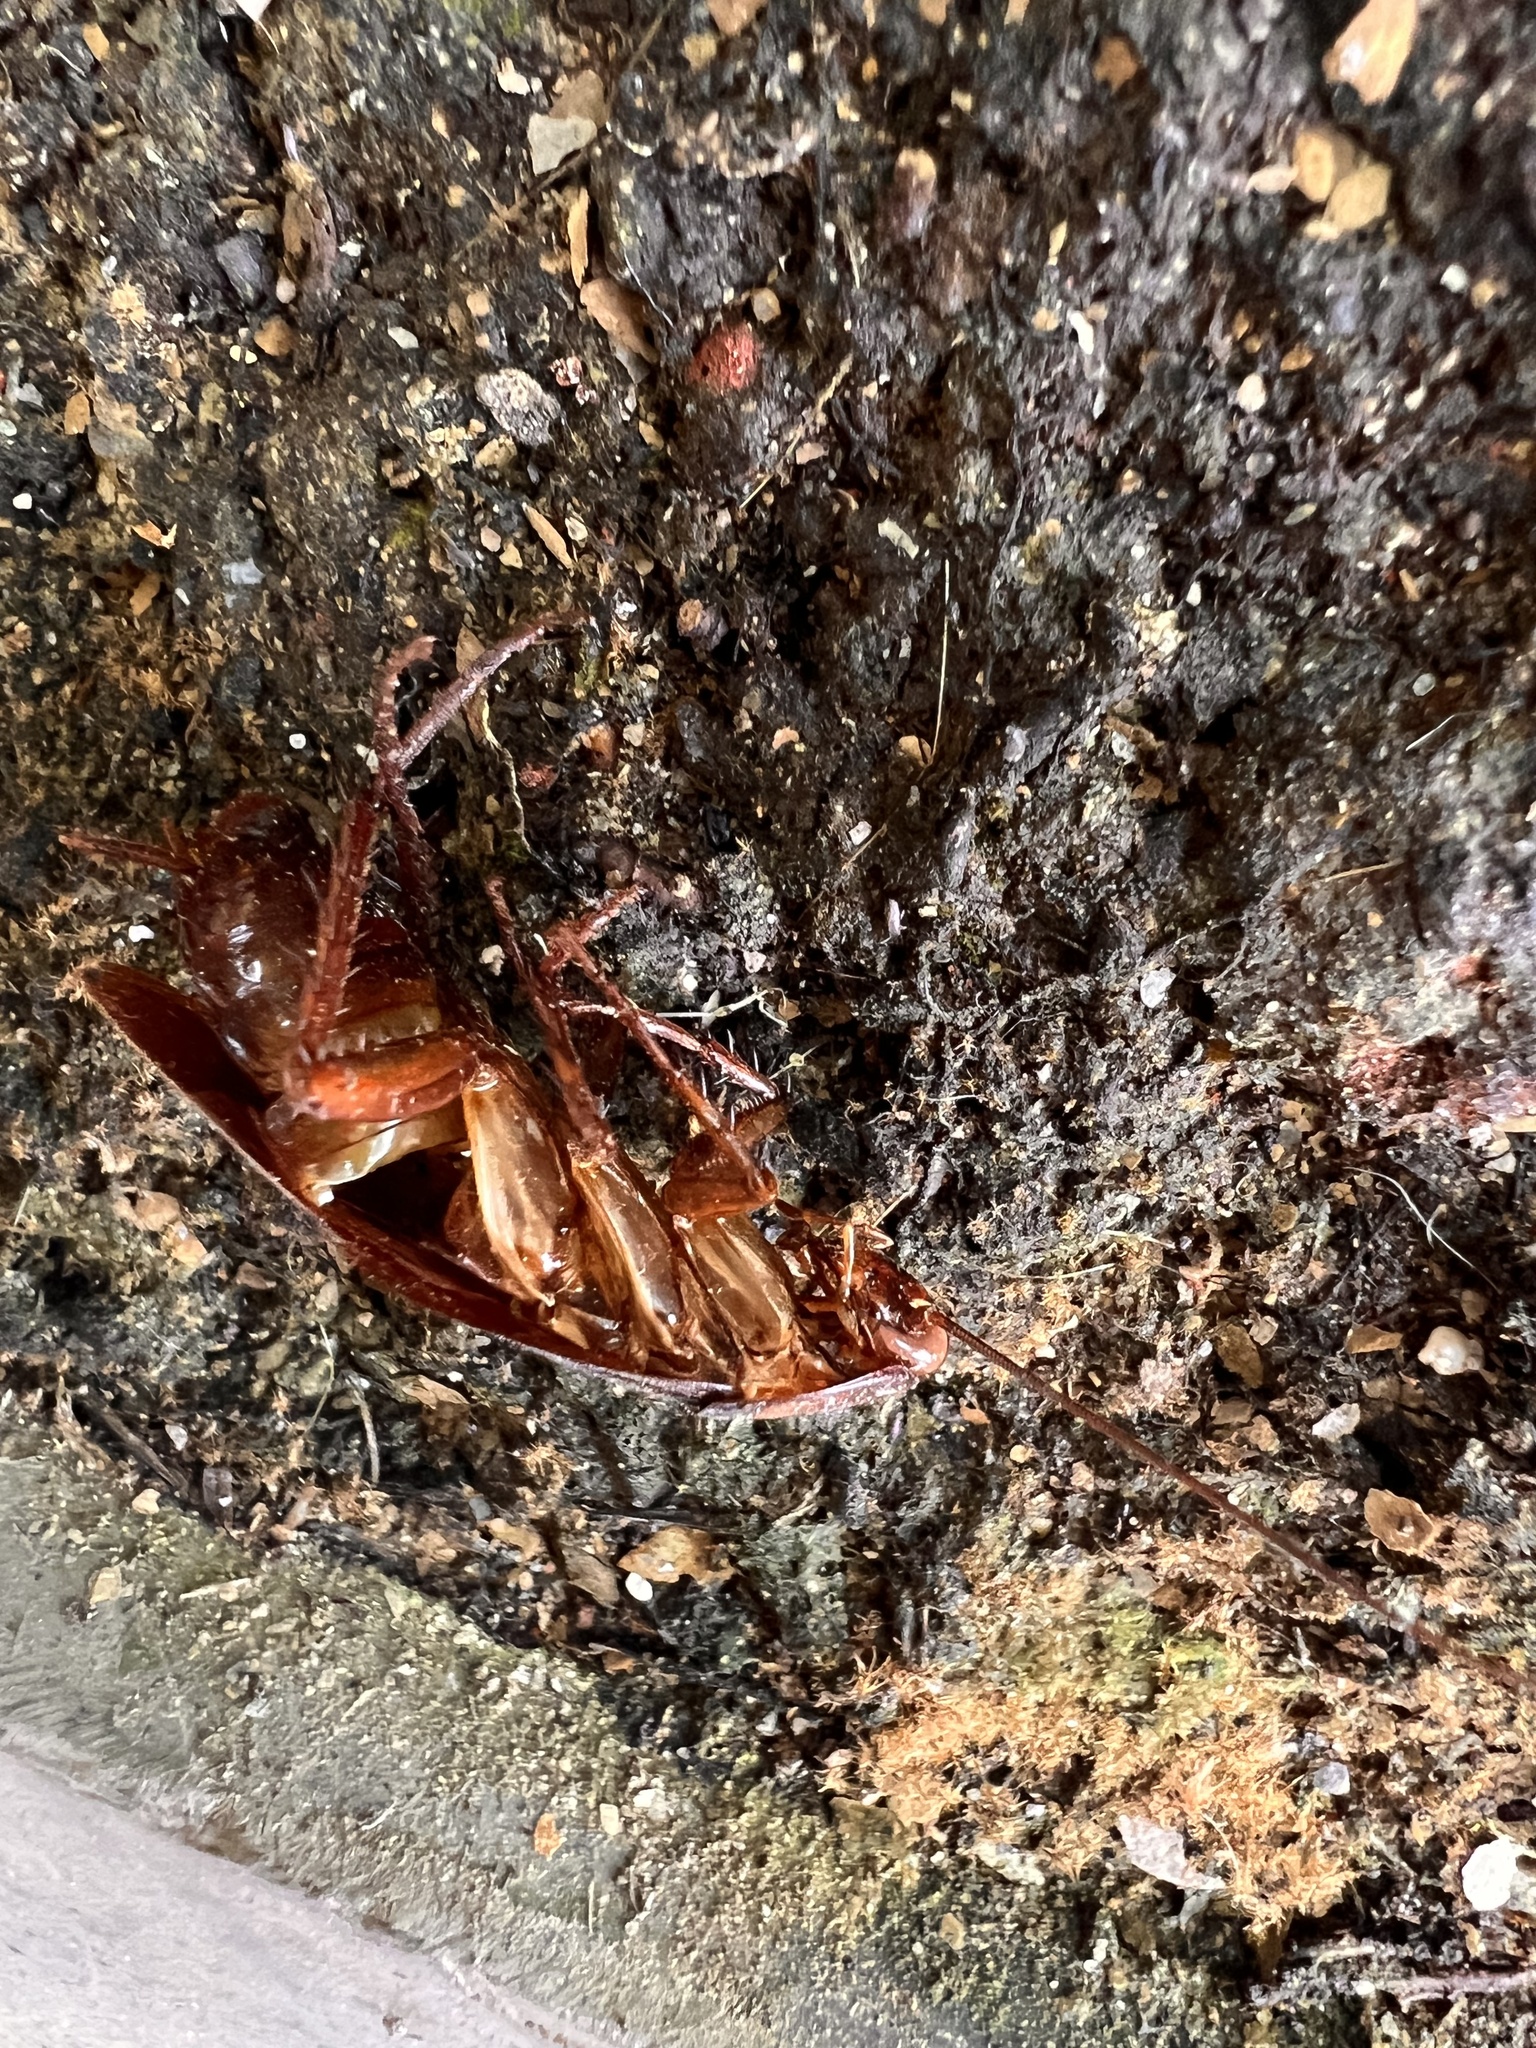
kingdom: Animalia
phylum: Arthropoda
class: Insecta
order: Blattodea
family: Blattidae
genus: Periplaneta
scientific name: Periplaneta americana
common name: American cockroach
